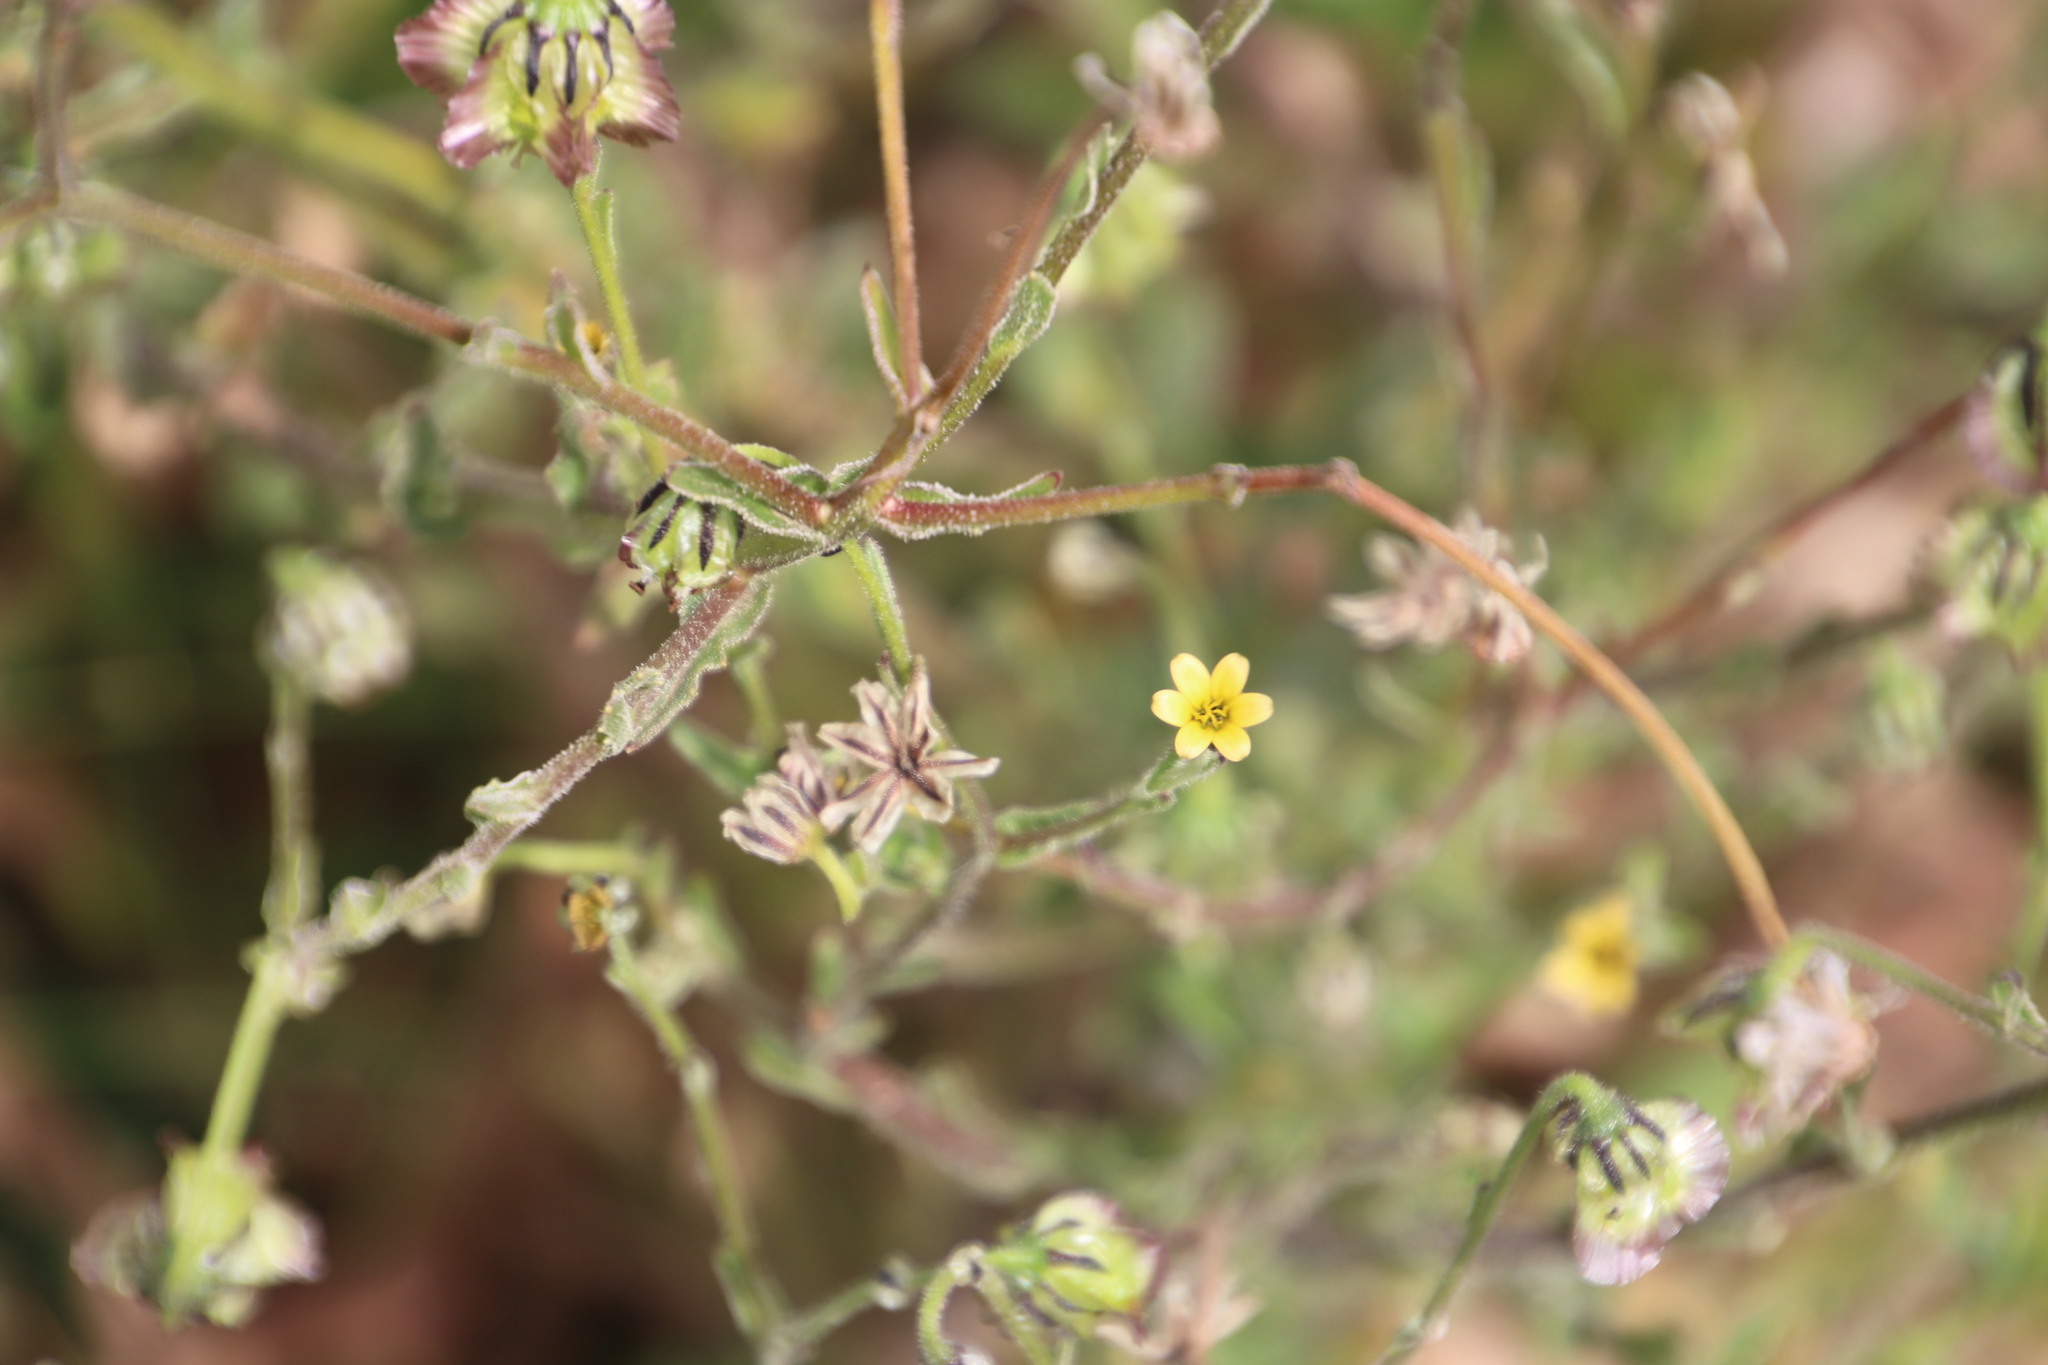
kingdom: Plantae
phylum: Tracheophyta
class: Magnoliopsida
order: Asterales
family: Asteraceae
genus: Osteospermum
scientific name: Osteospermum monstrosum
